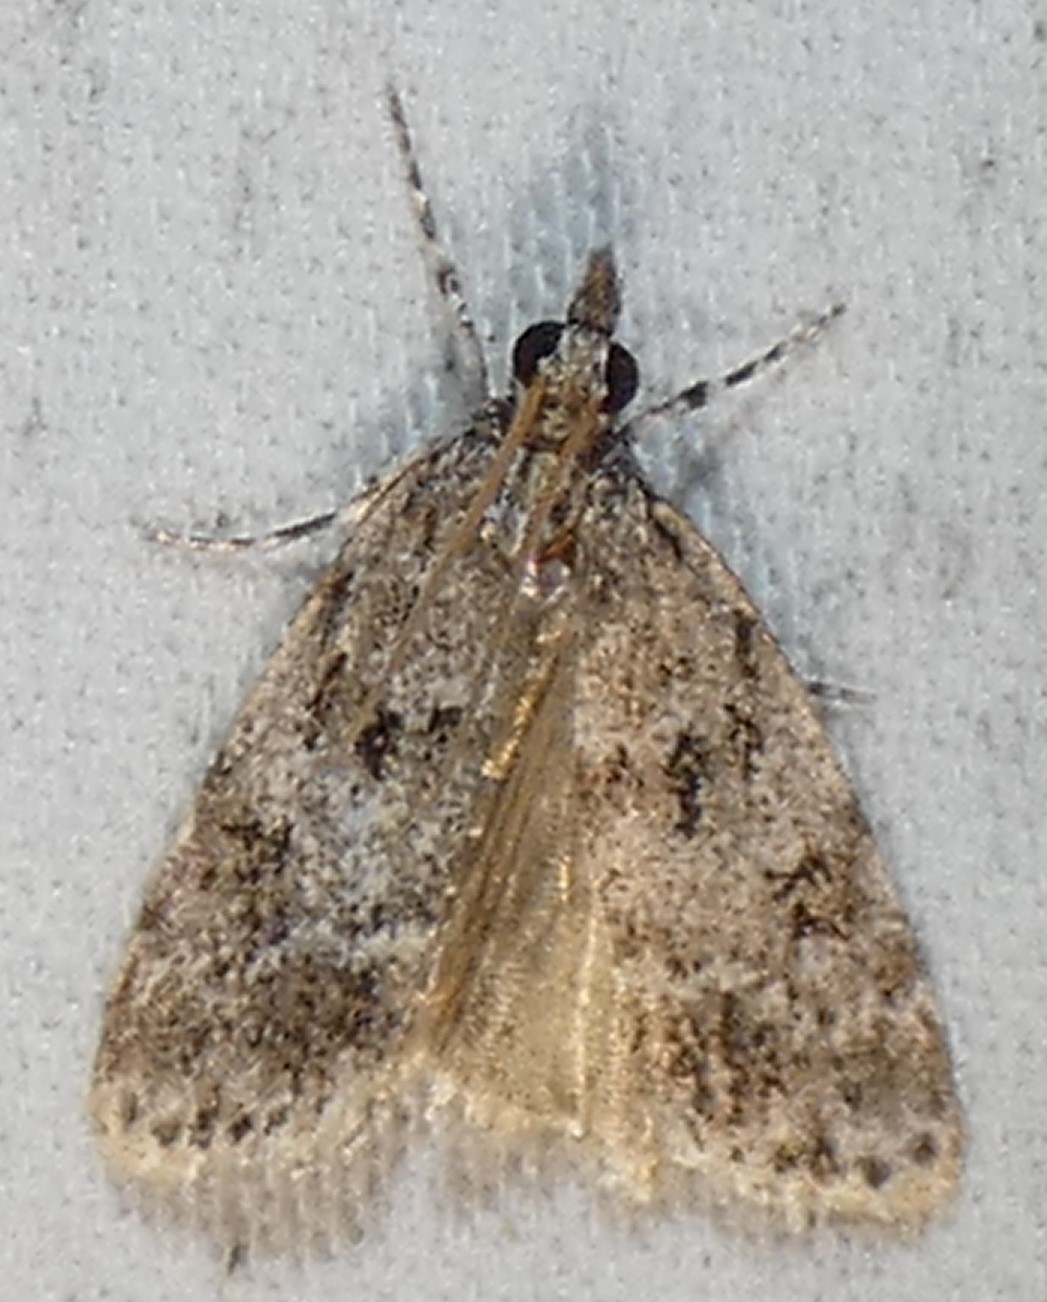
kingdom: Animalia
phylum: Arthropoda
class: Insecta
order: Lepidoptera
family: Crambidae
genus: Scoparia
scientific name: Scoparia basalis
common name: Many-spotted scoparia moth
